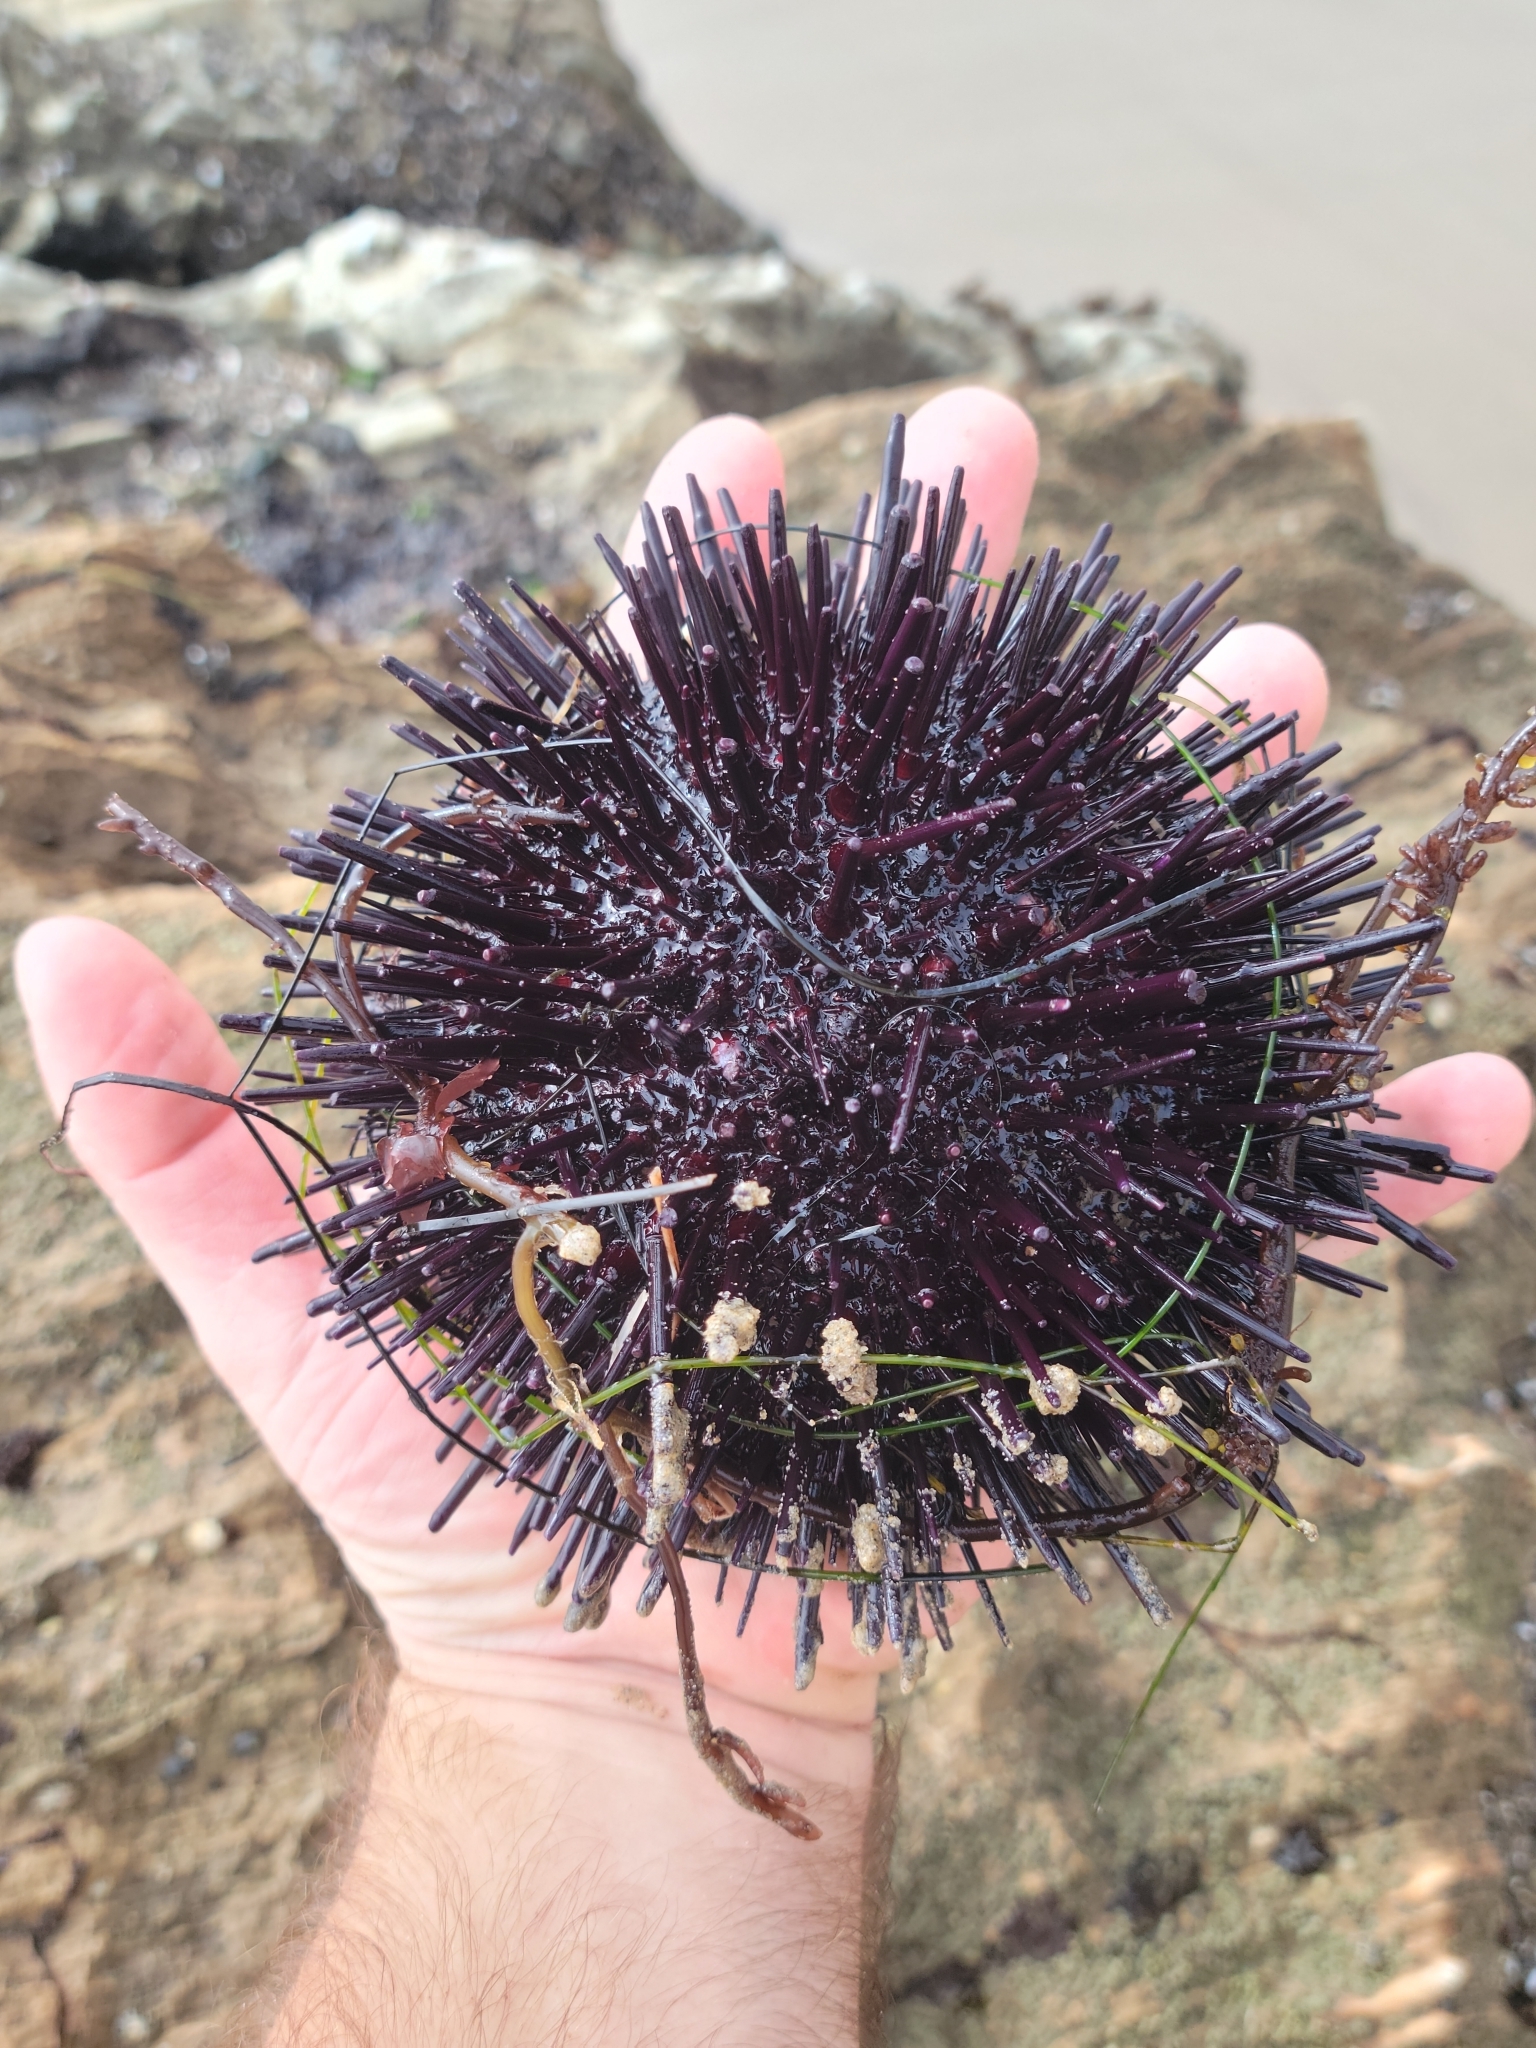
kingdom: Animalia
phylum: Echinodermata
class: Echinoidea
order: Camarodonta
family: Strongylocentrotidae
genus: Mesocentrotus
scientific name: Mesocentrotus franciscanus
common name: Red sea urchin
